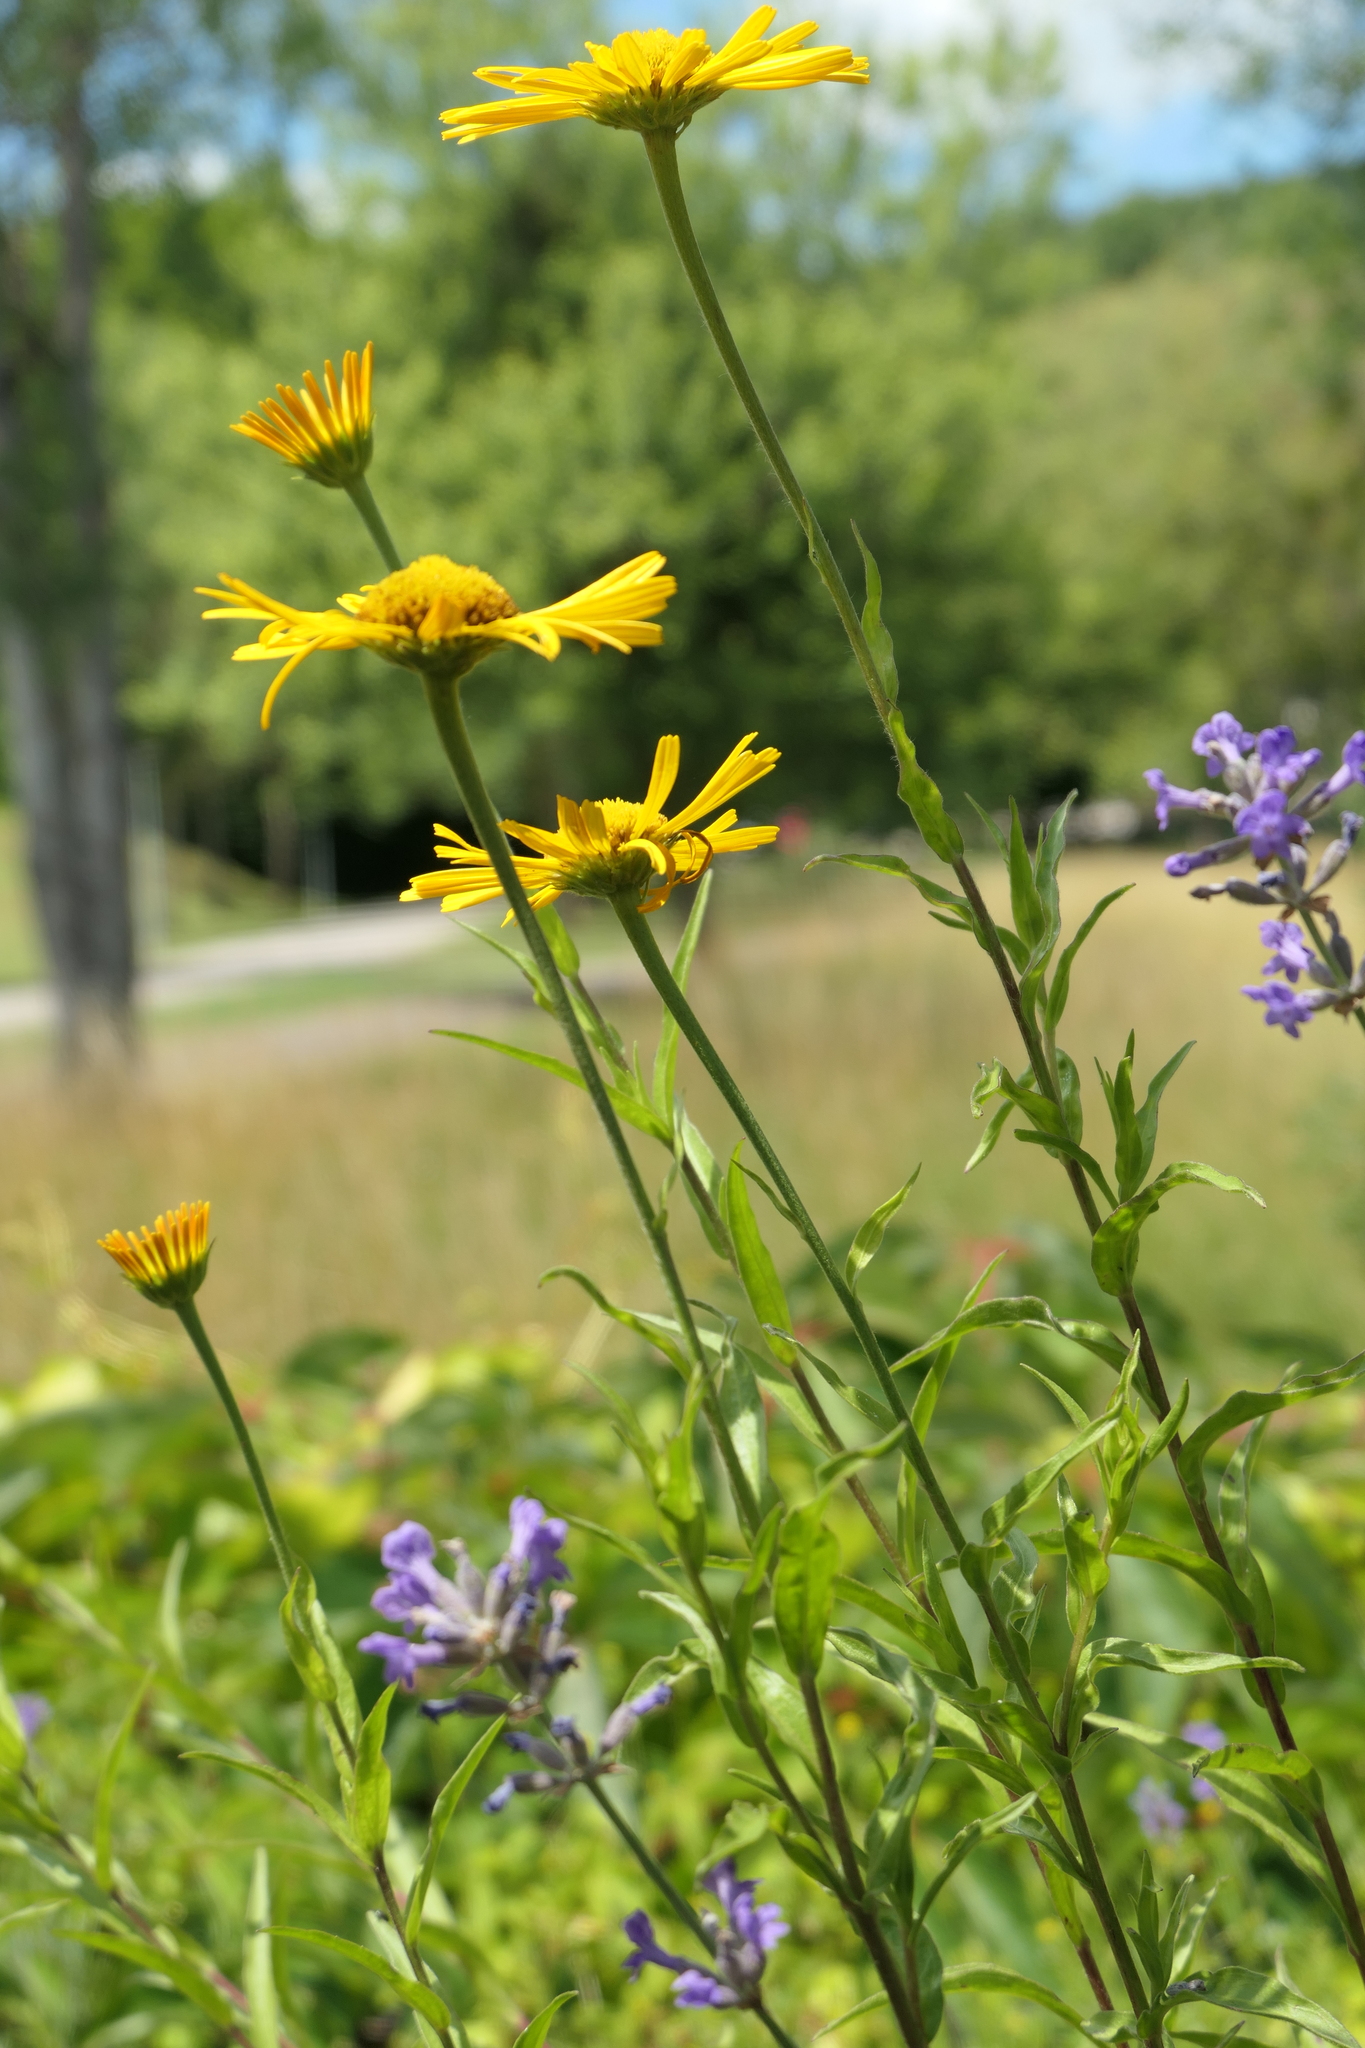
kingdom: Plantae
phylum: Tracheophyta
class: Magnoliopsida
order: Asterales
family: Asteraceae
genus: Buphthalmum
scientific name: Buphthalmum salicifolium
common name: Willow-leaved yellow-oxeye
